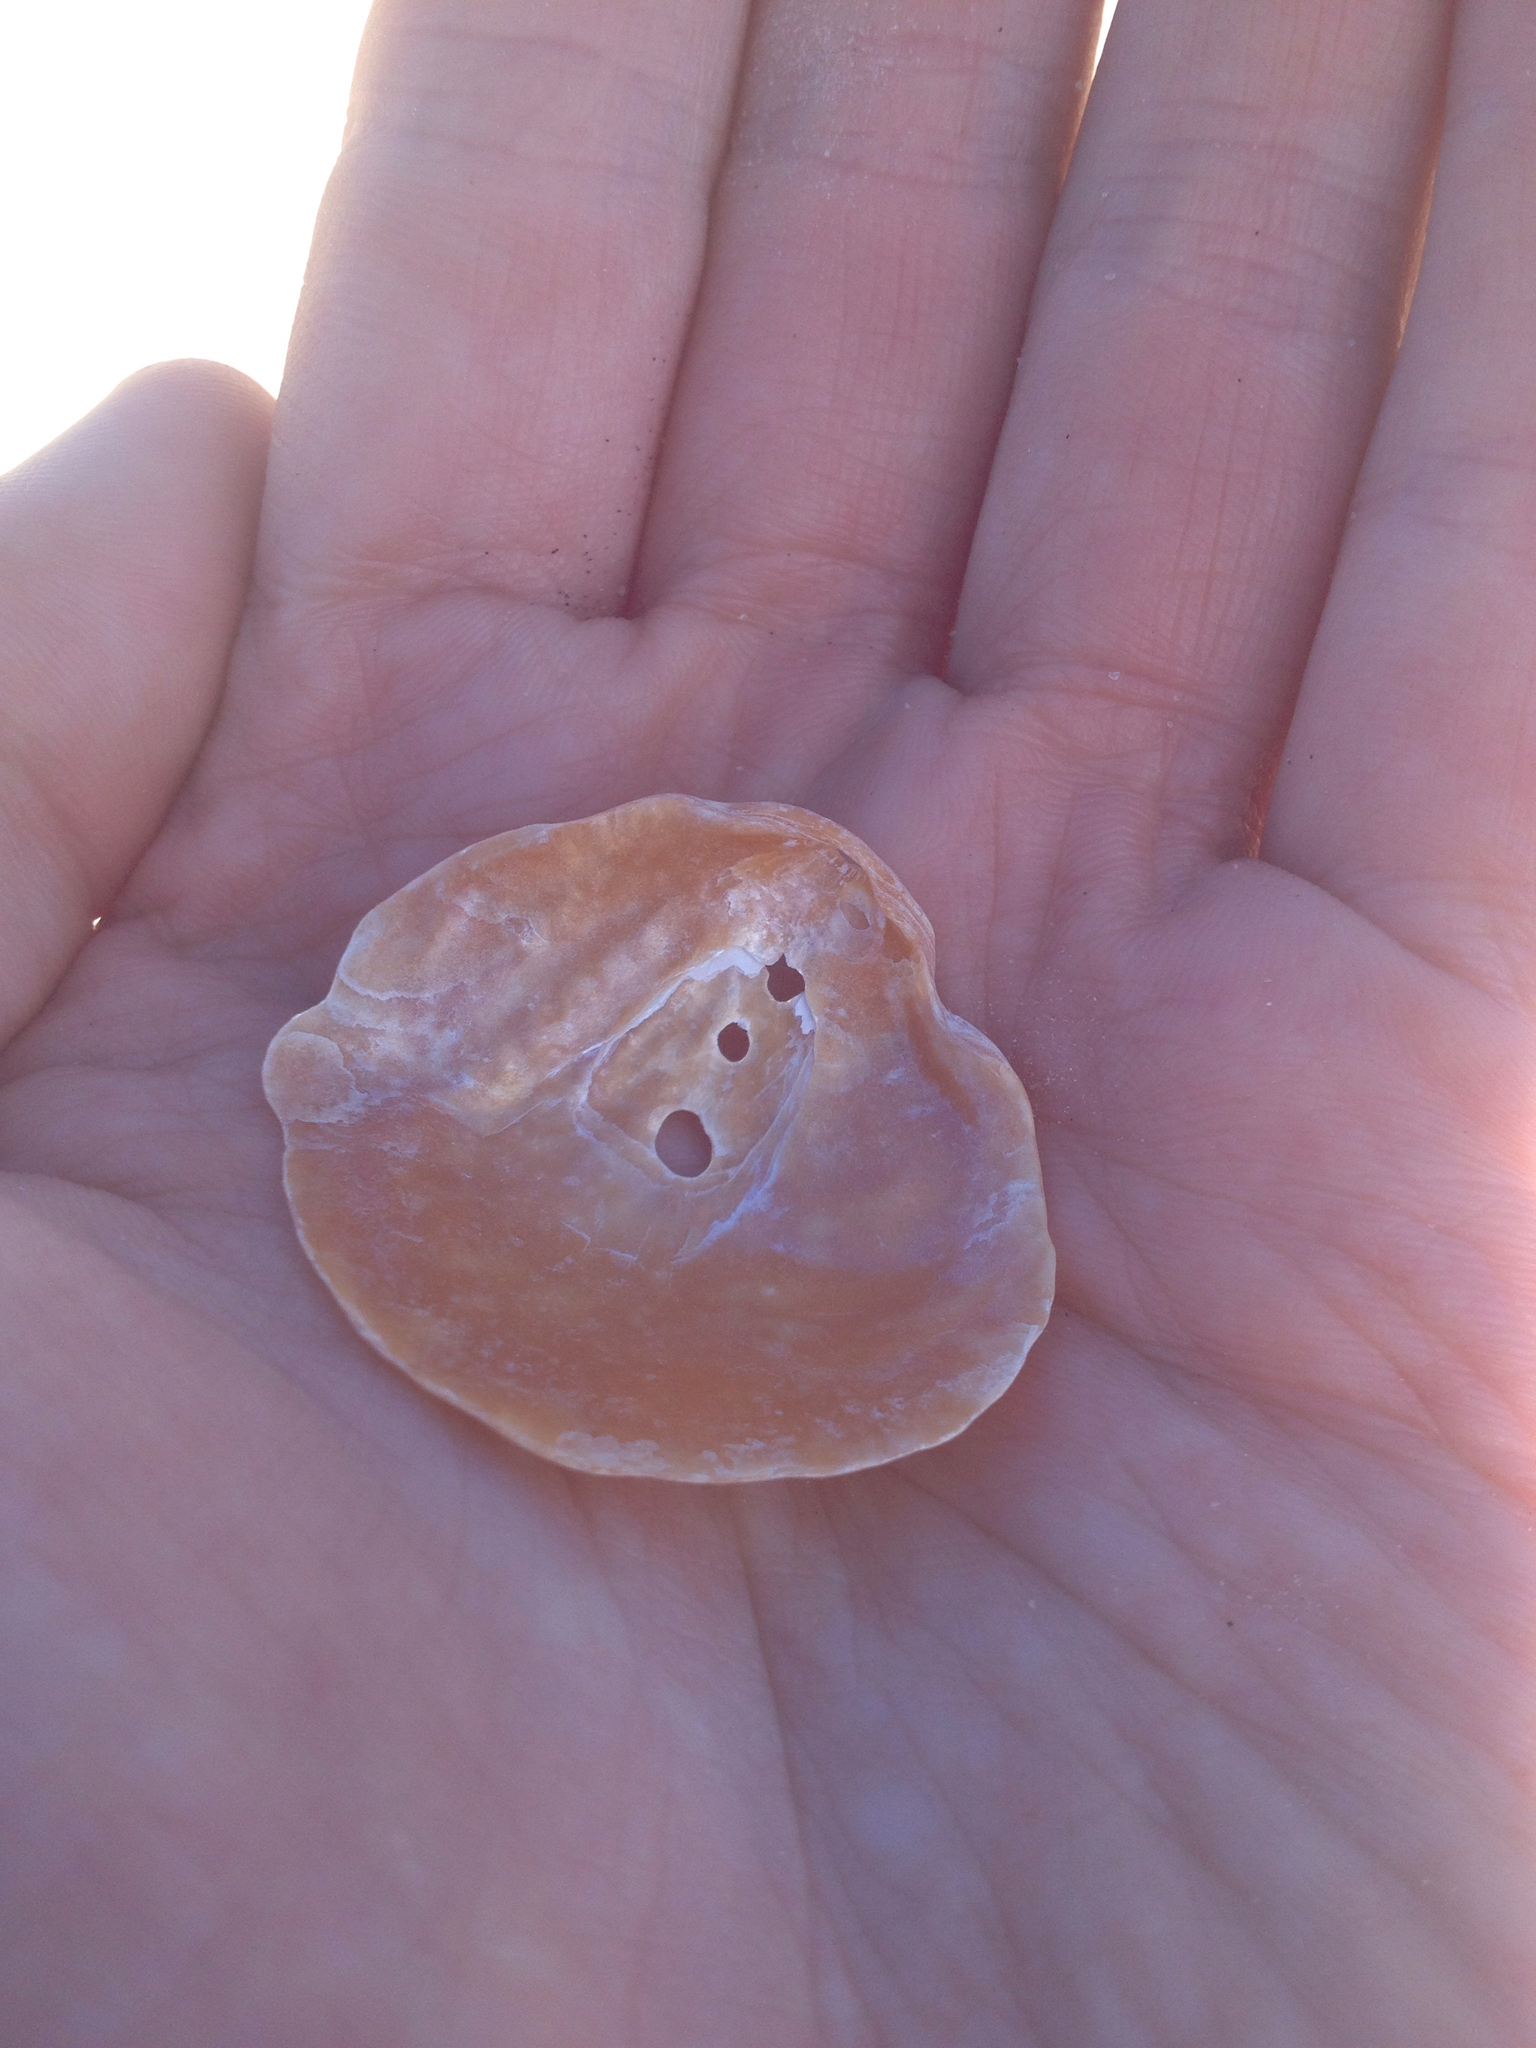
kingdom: Animalia
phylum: Mollusca
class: Bivalvia
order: Pectinida
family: Anomiidae
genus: Anomia
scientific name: Anomia simplex
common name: Common jingle shell
